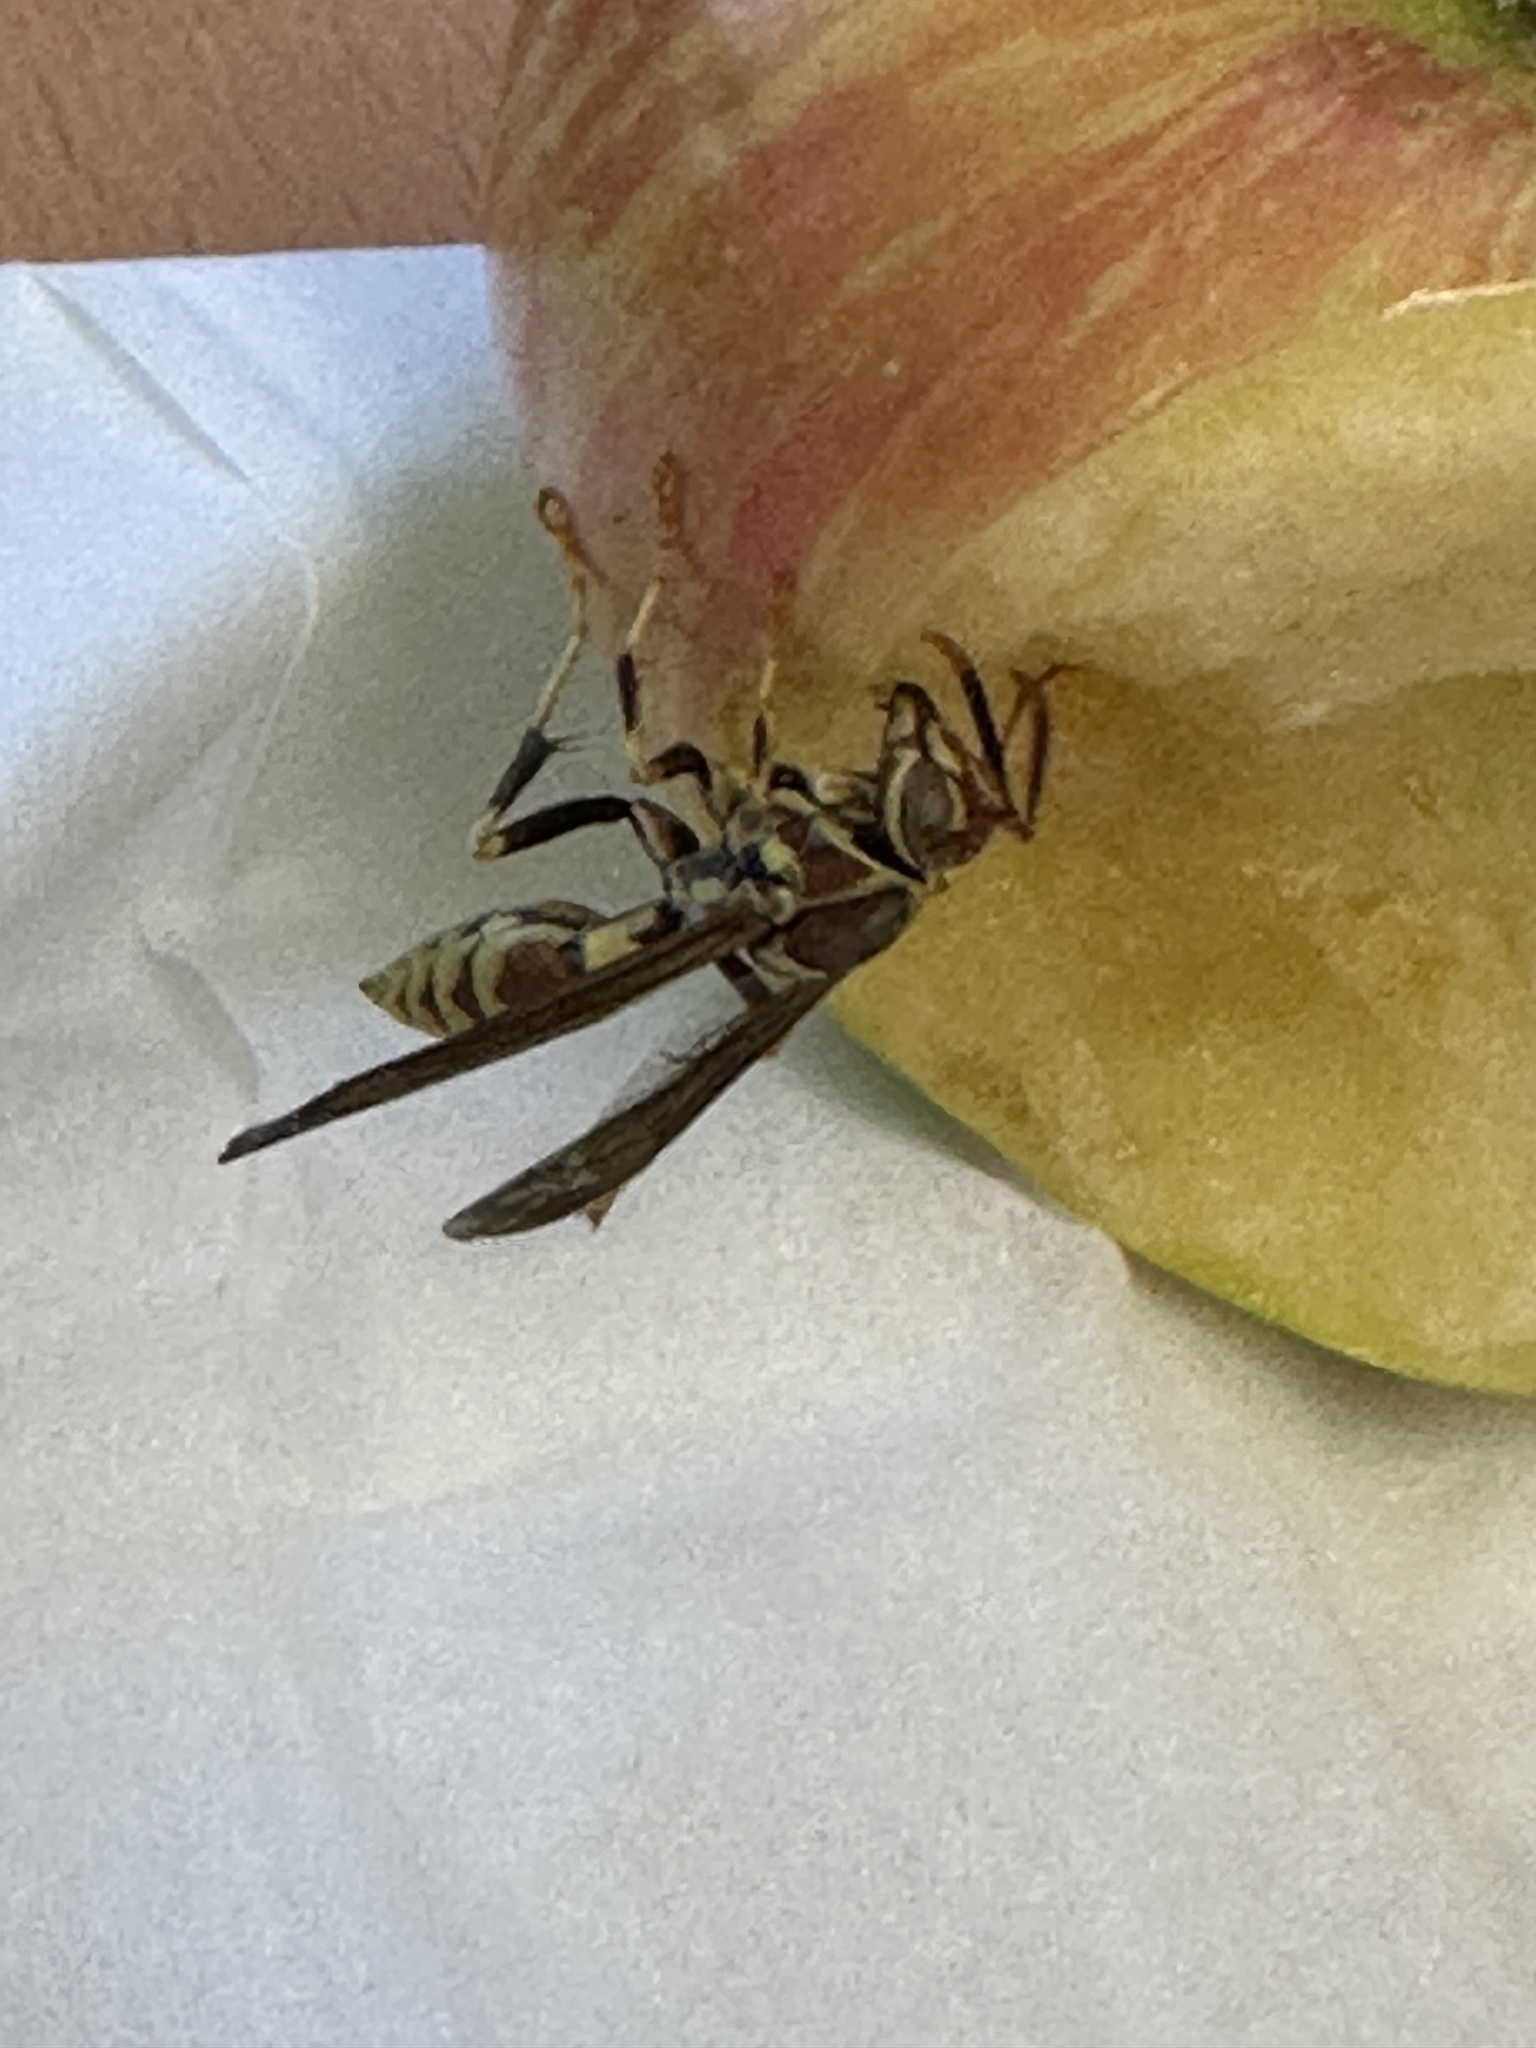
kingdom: Animalia
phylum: Arthropoda
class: Insecta
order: Hymenoptera
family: Eumenidae
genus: Polistes
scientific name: Polistes exclamans
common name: Paper wasp
